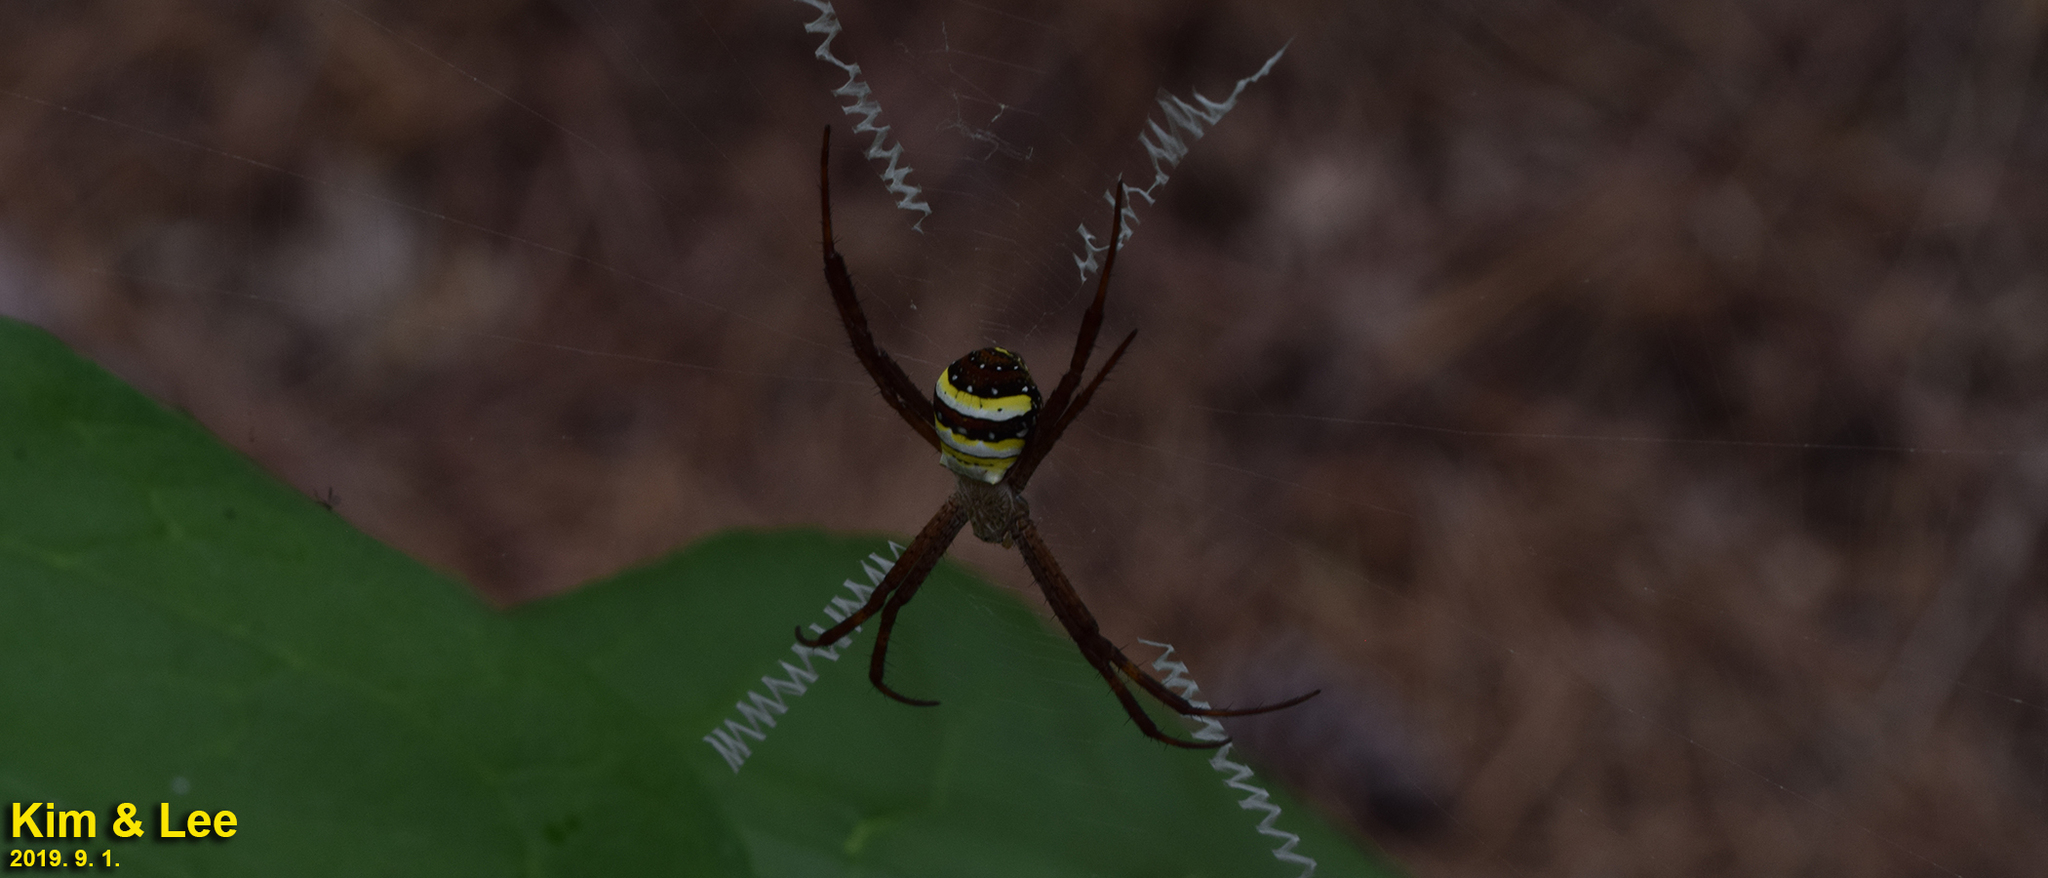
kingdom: Animalia
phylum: Arthropoda
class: Arachnida
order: Araneae
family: Araneidae
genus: Argiope
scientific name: Argiope minuta
